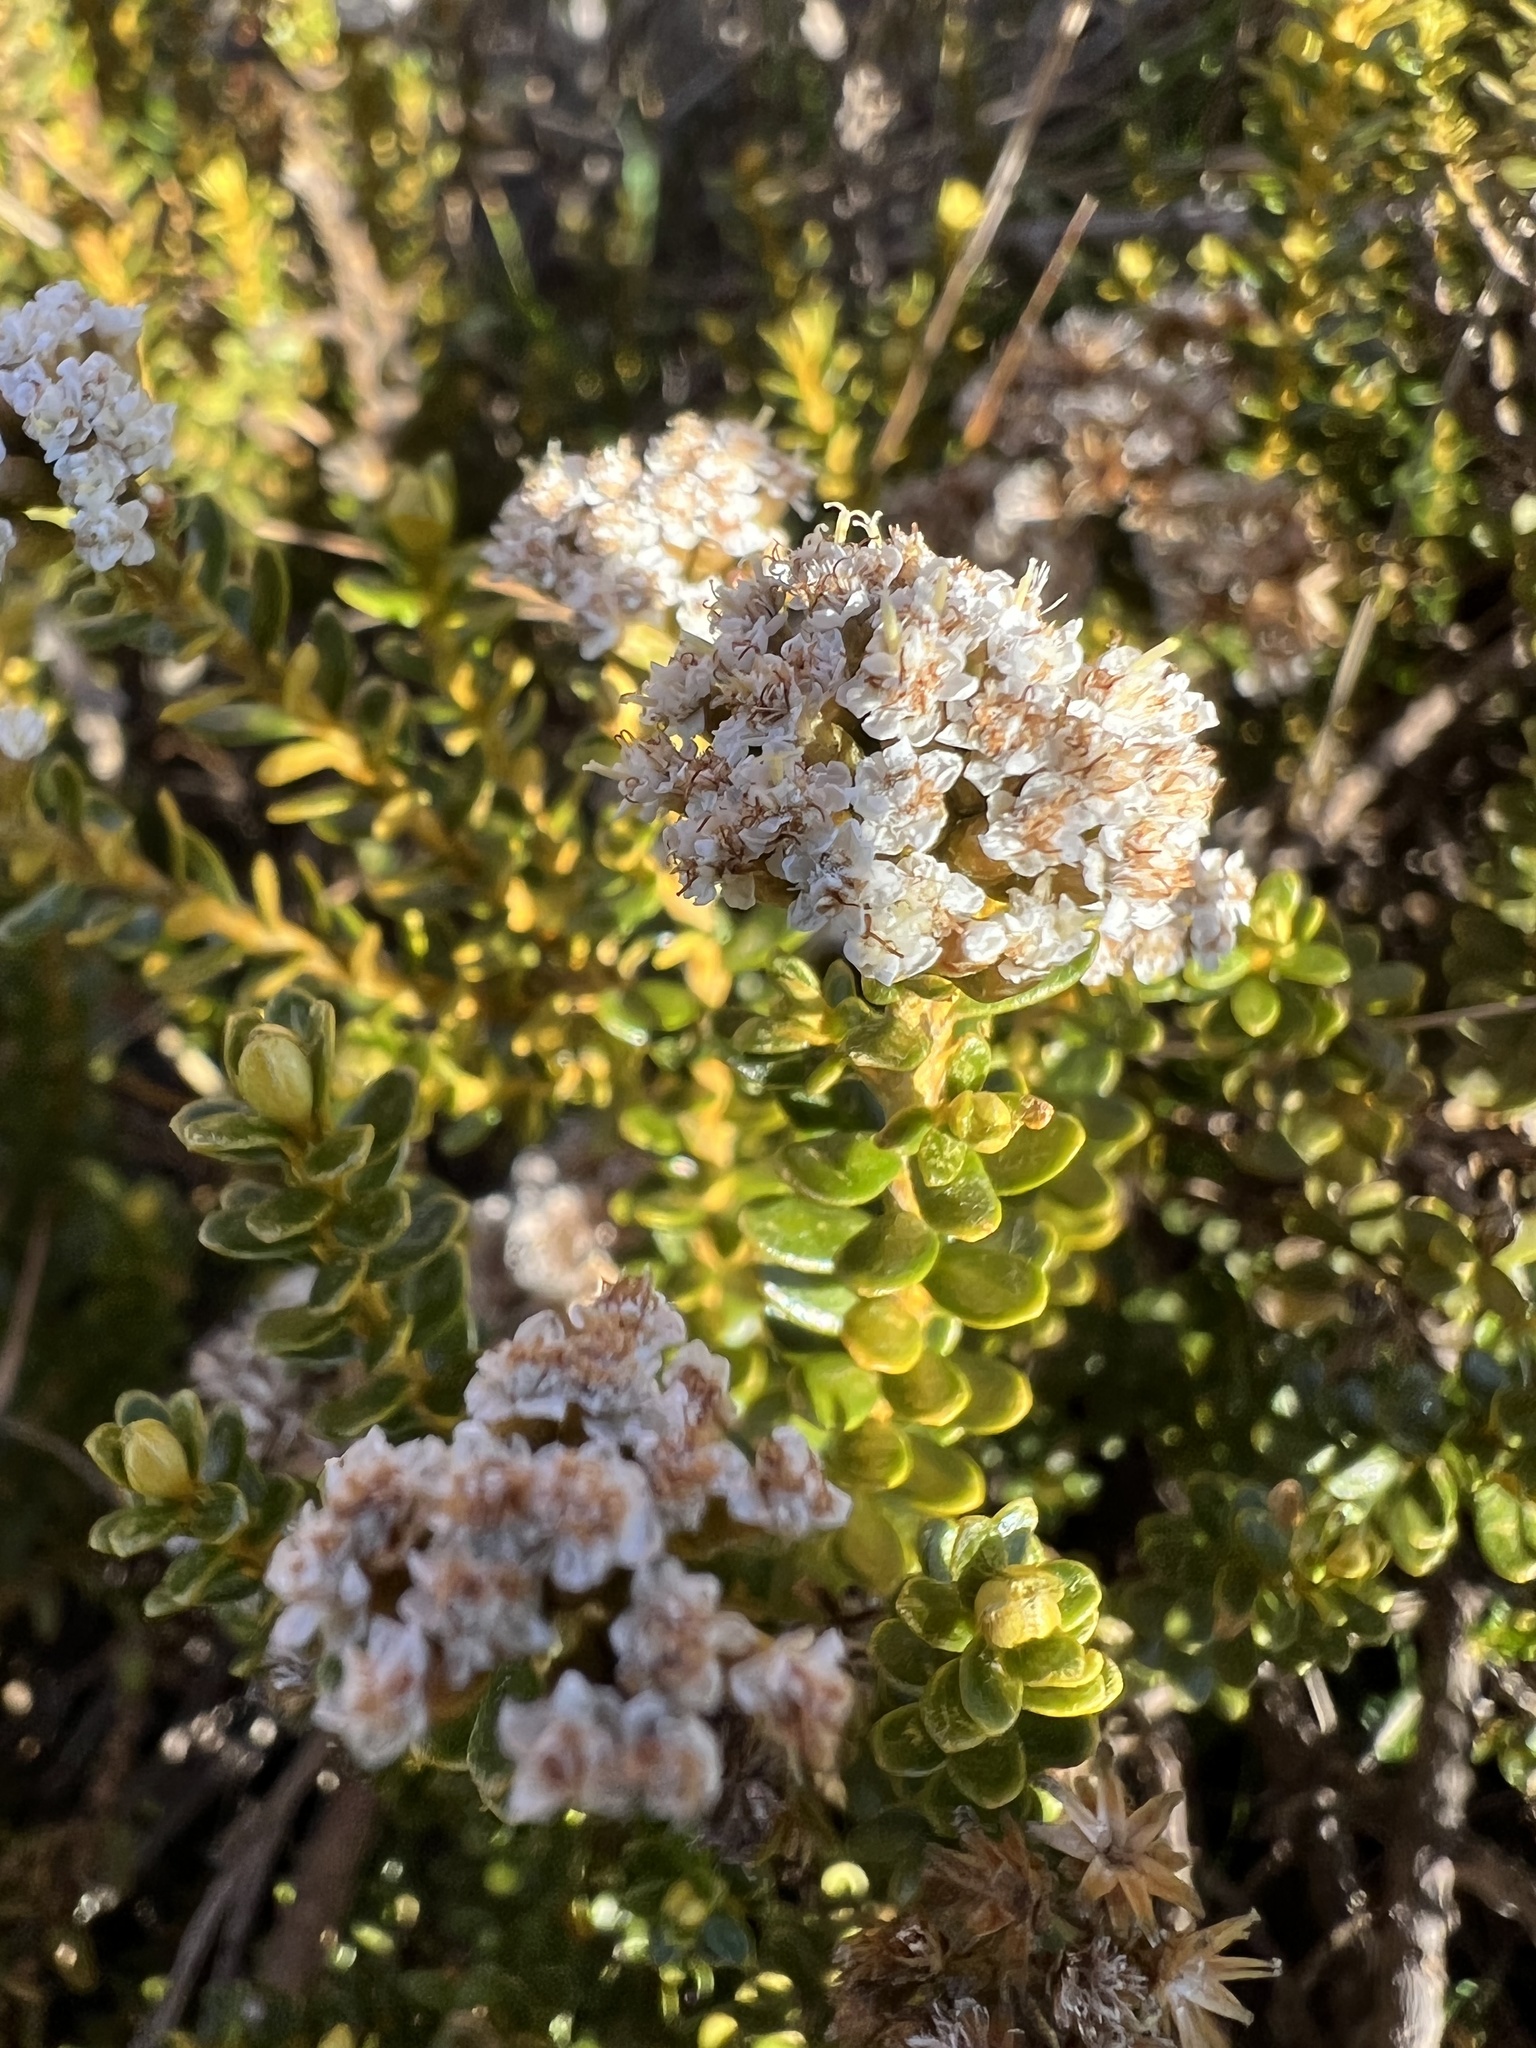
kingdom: Plantae
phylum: Tracheophyta
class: Magnoliopsida
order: Asterales
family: Asteraceae
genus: Ozothamnus
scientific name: Ozothamnus leptophyllus
